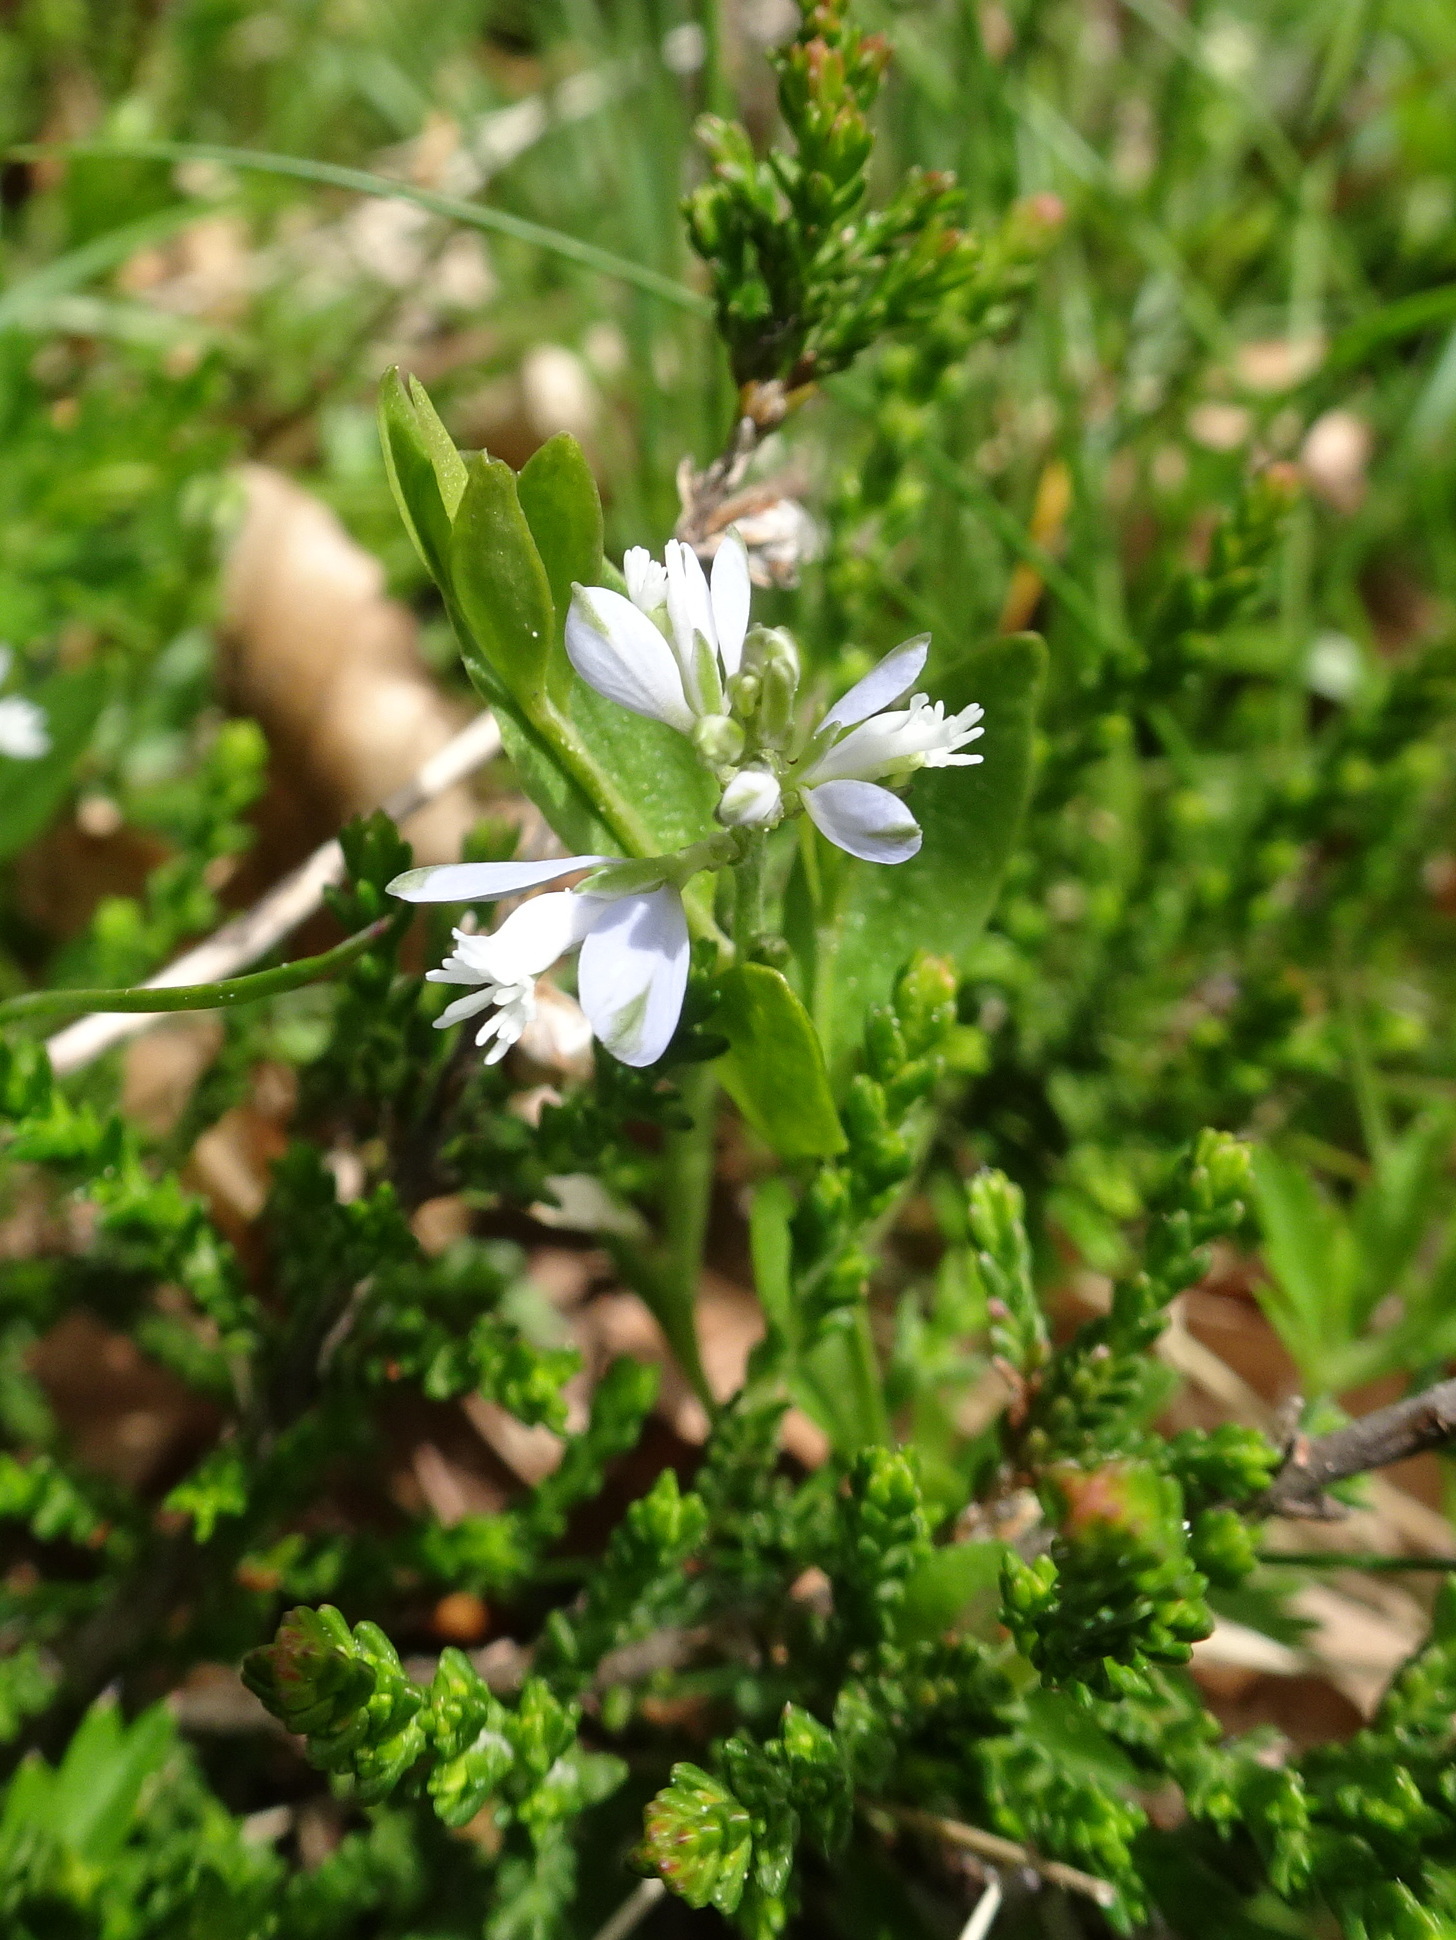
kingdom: Plantae
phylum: Tracheophyta
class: Magnoliopsida
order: Fabales
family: Polygalaceae
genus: Polygala
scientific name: Polygala serpyllifolia
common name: Heath milkwort
